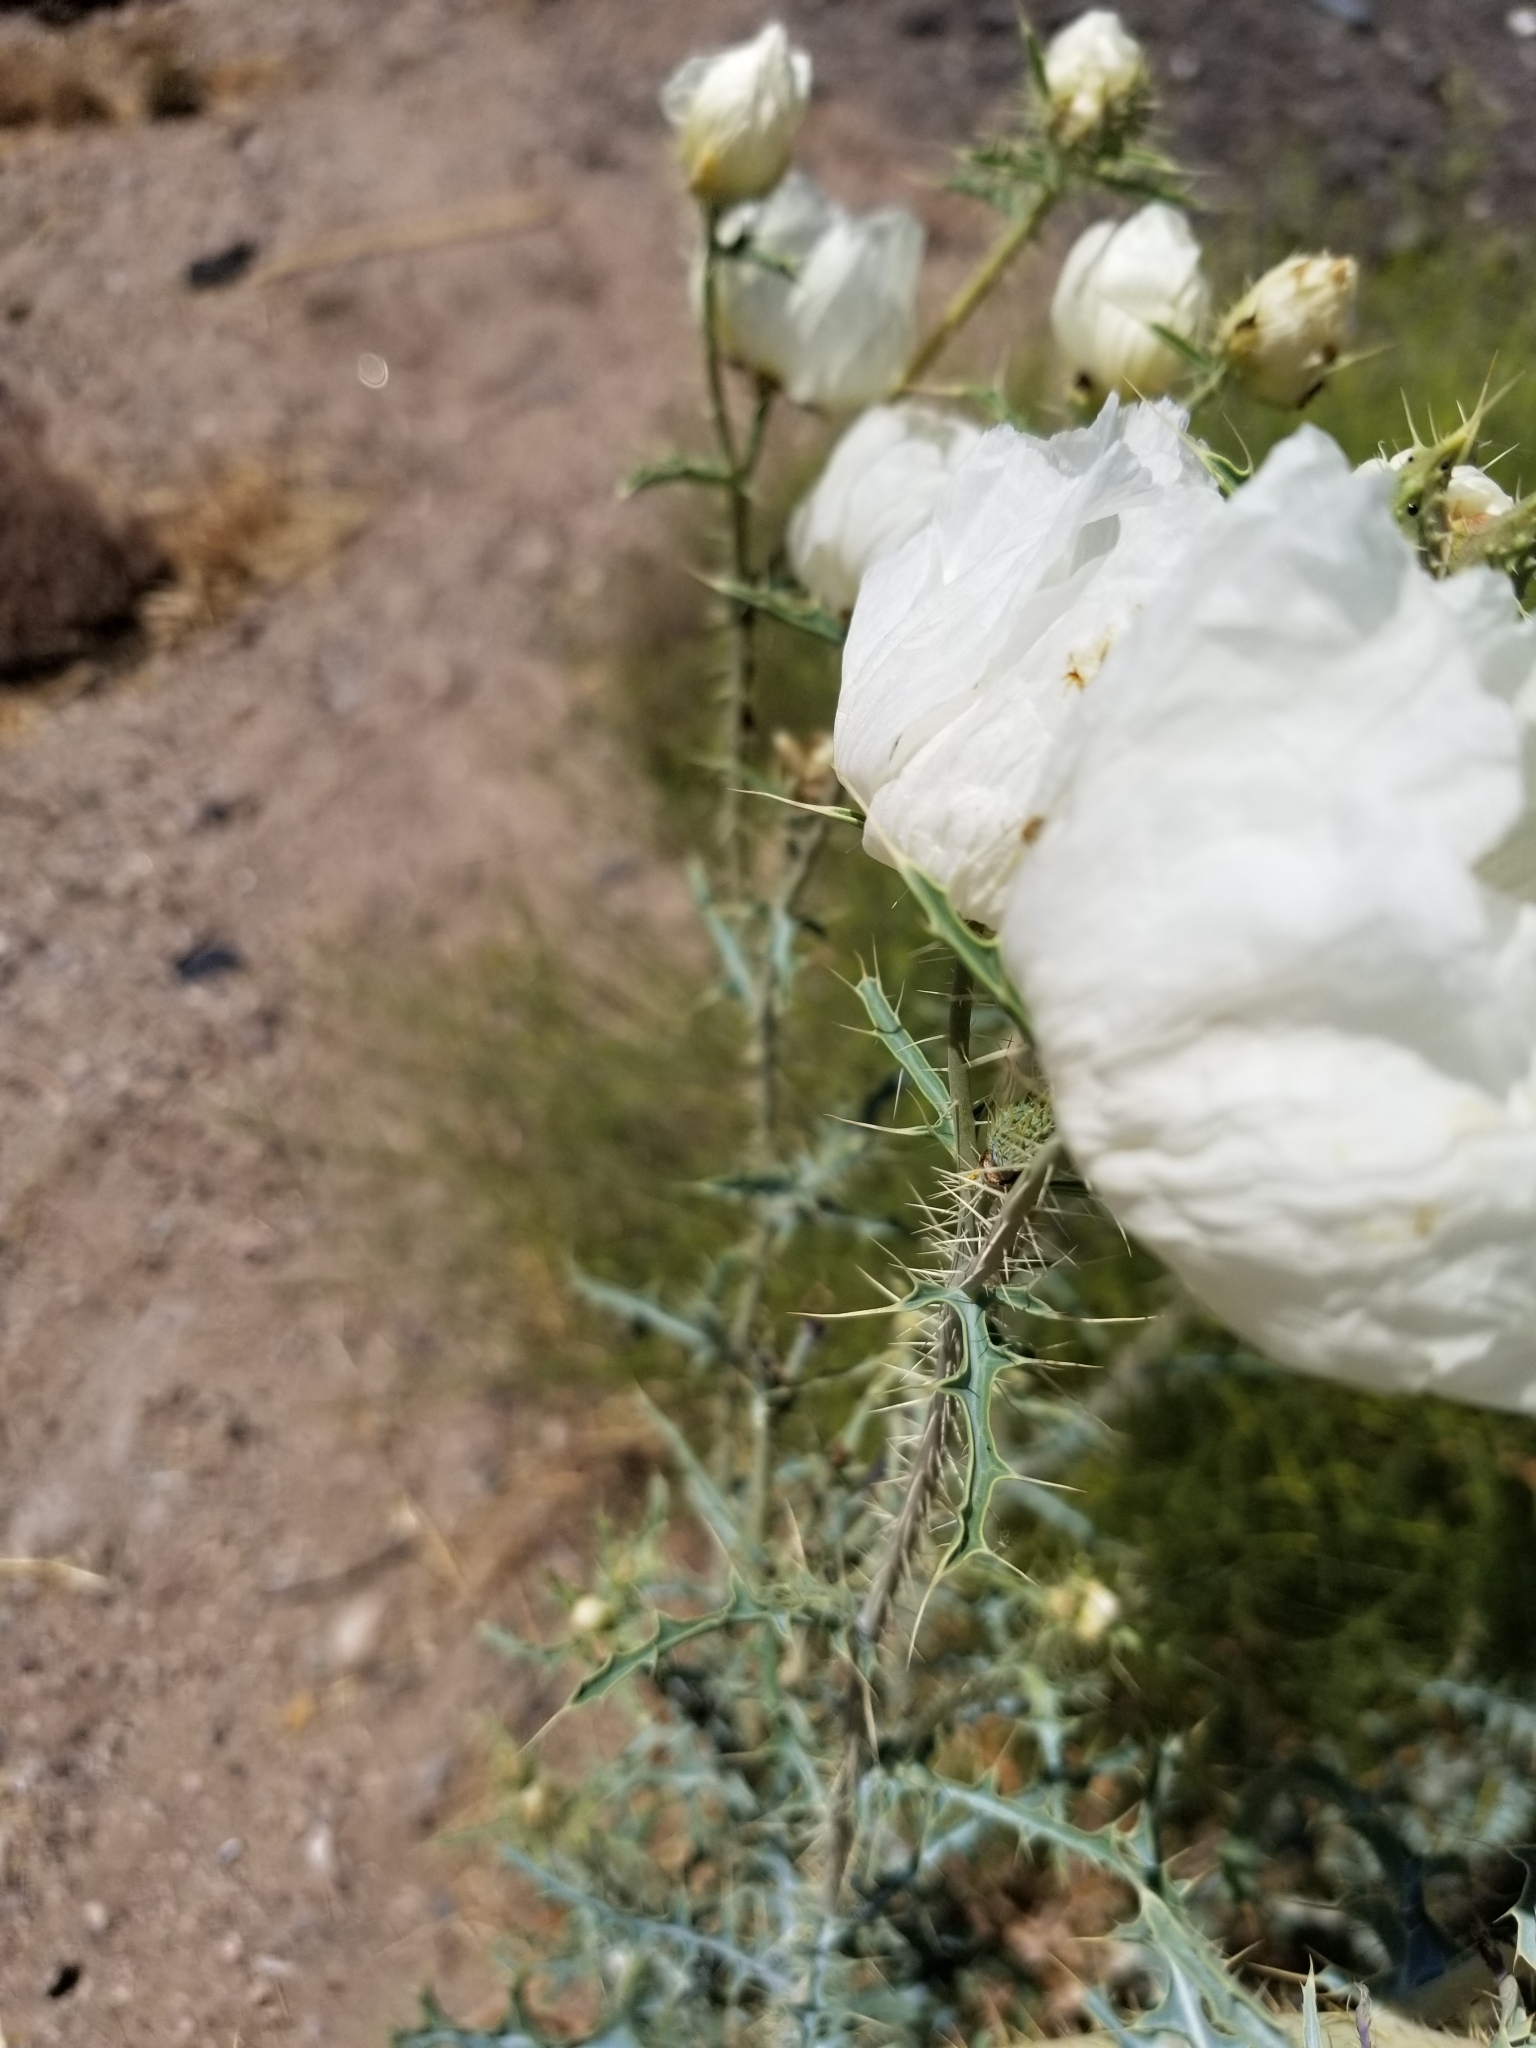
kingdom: Plantae
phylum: Tracheophyta
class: Magnoliopsida
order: Ranunculales
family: Papaveraceae
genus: Argemone
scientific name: Argemone pleiacantha
